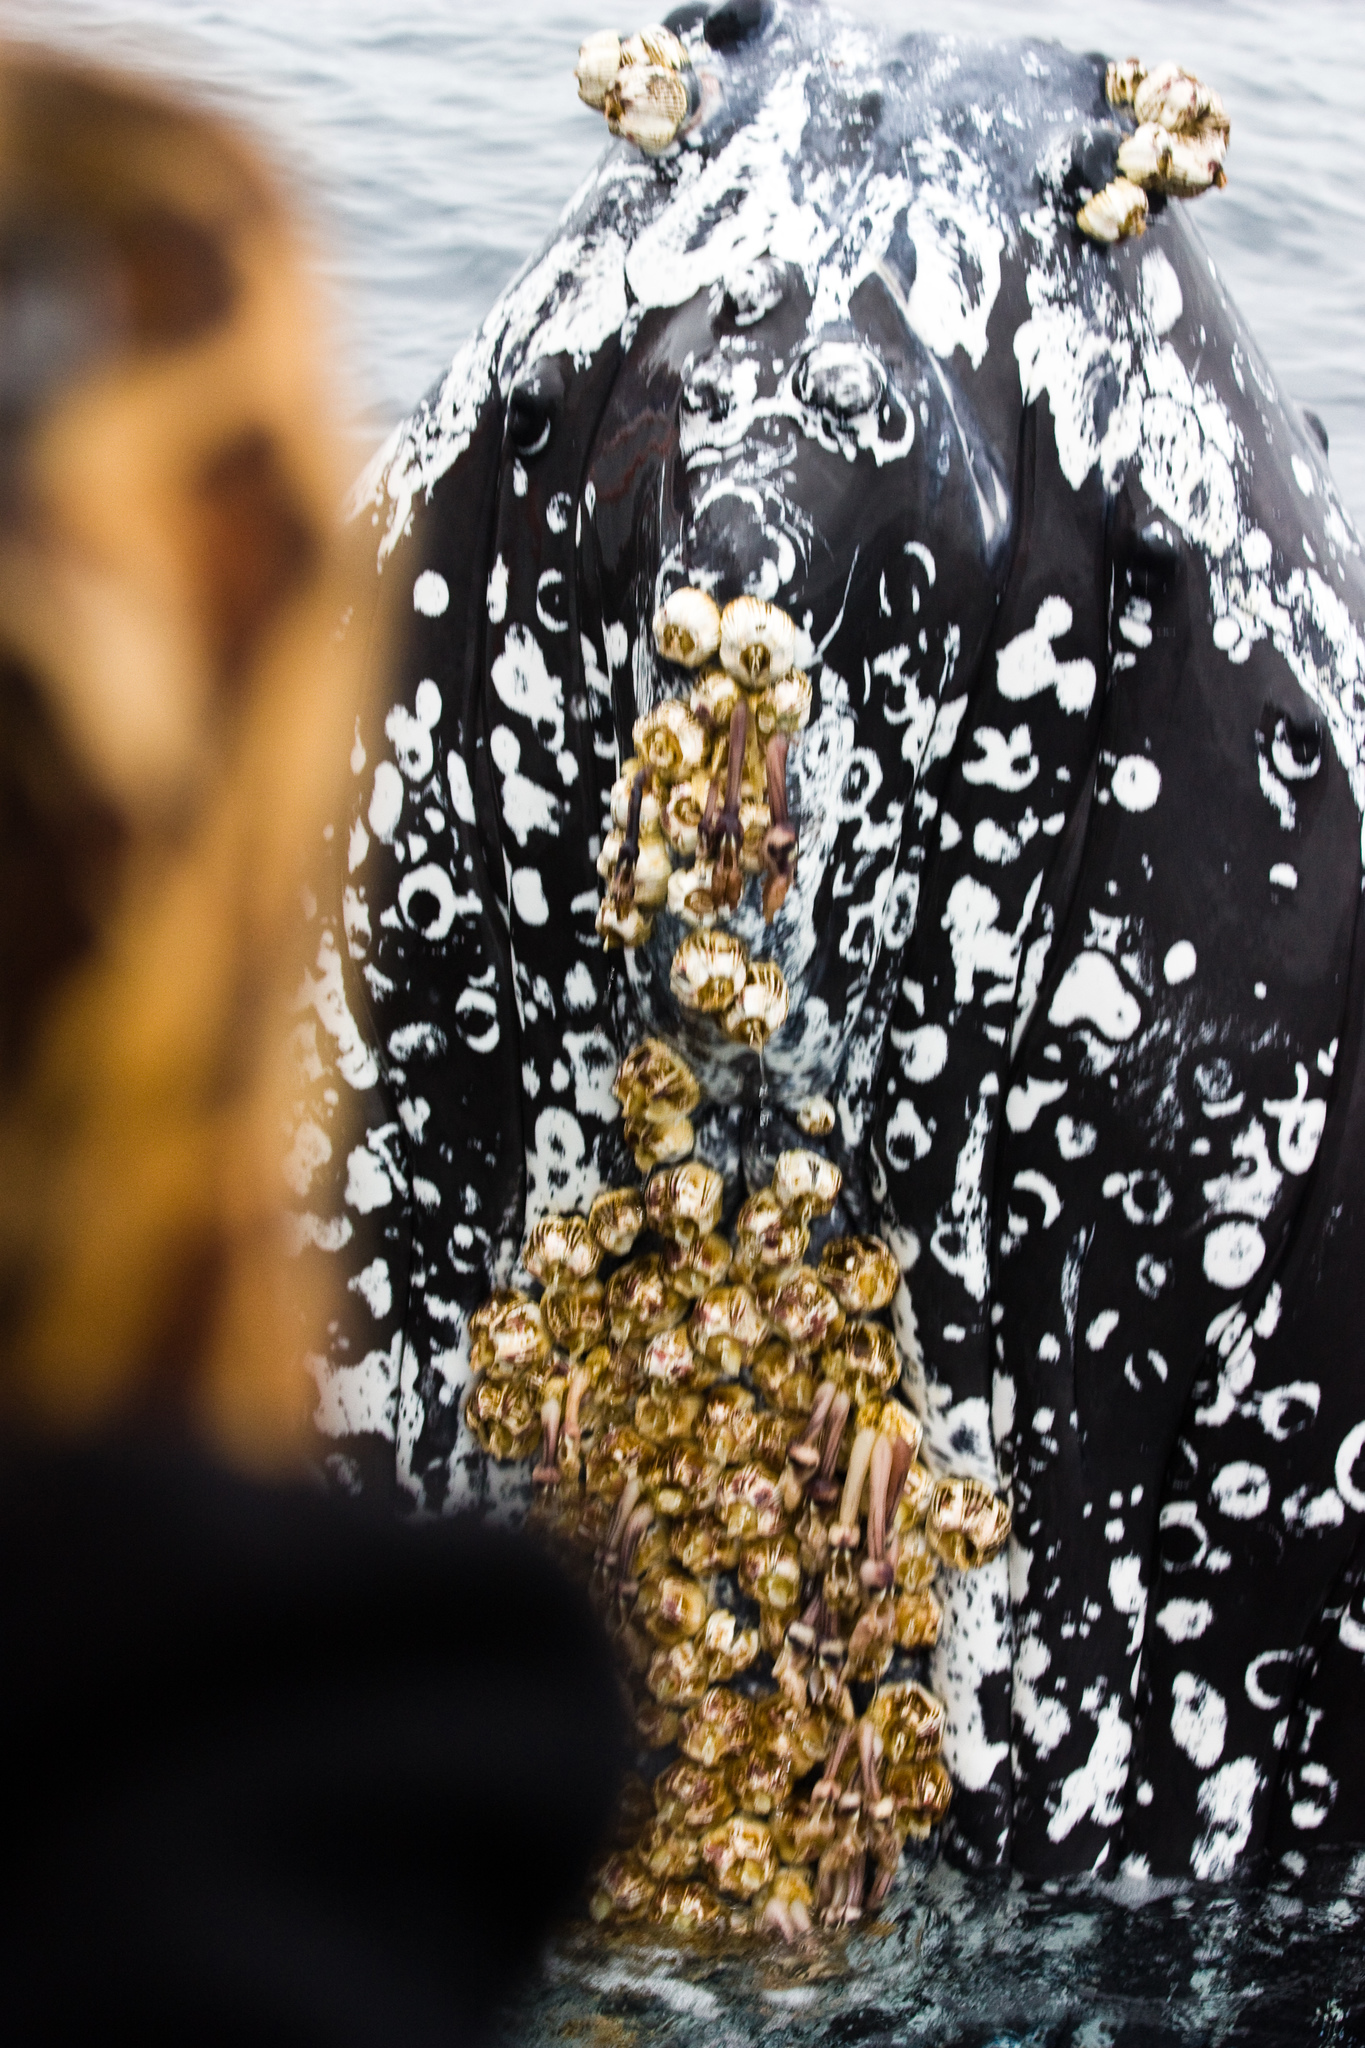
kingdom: Animalia
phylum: Arthropoda
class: Maxillopoda
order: Sessilia
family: Coronulidae
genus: Coronula
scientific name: Coronula diadema
